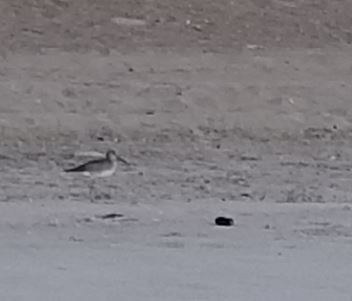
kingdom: Animalia
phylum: Chordata
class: Aves
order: Charadriiformes
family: Scolopacidae
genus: Tringa
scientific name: Tringa semipalmata
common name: Willet
